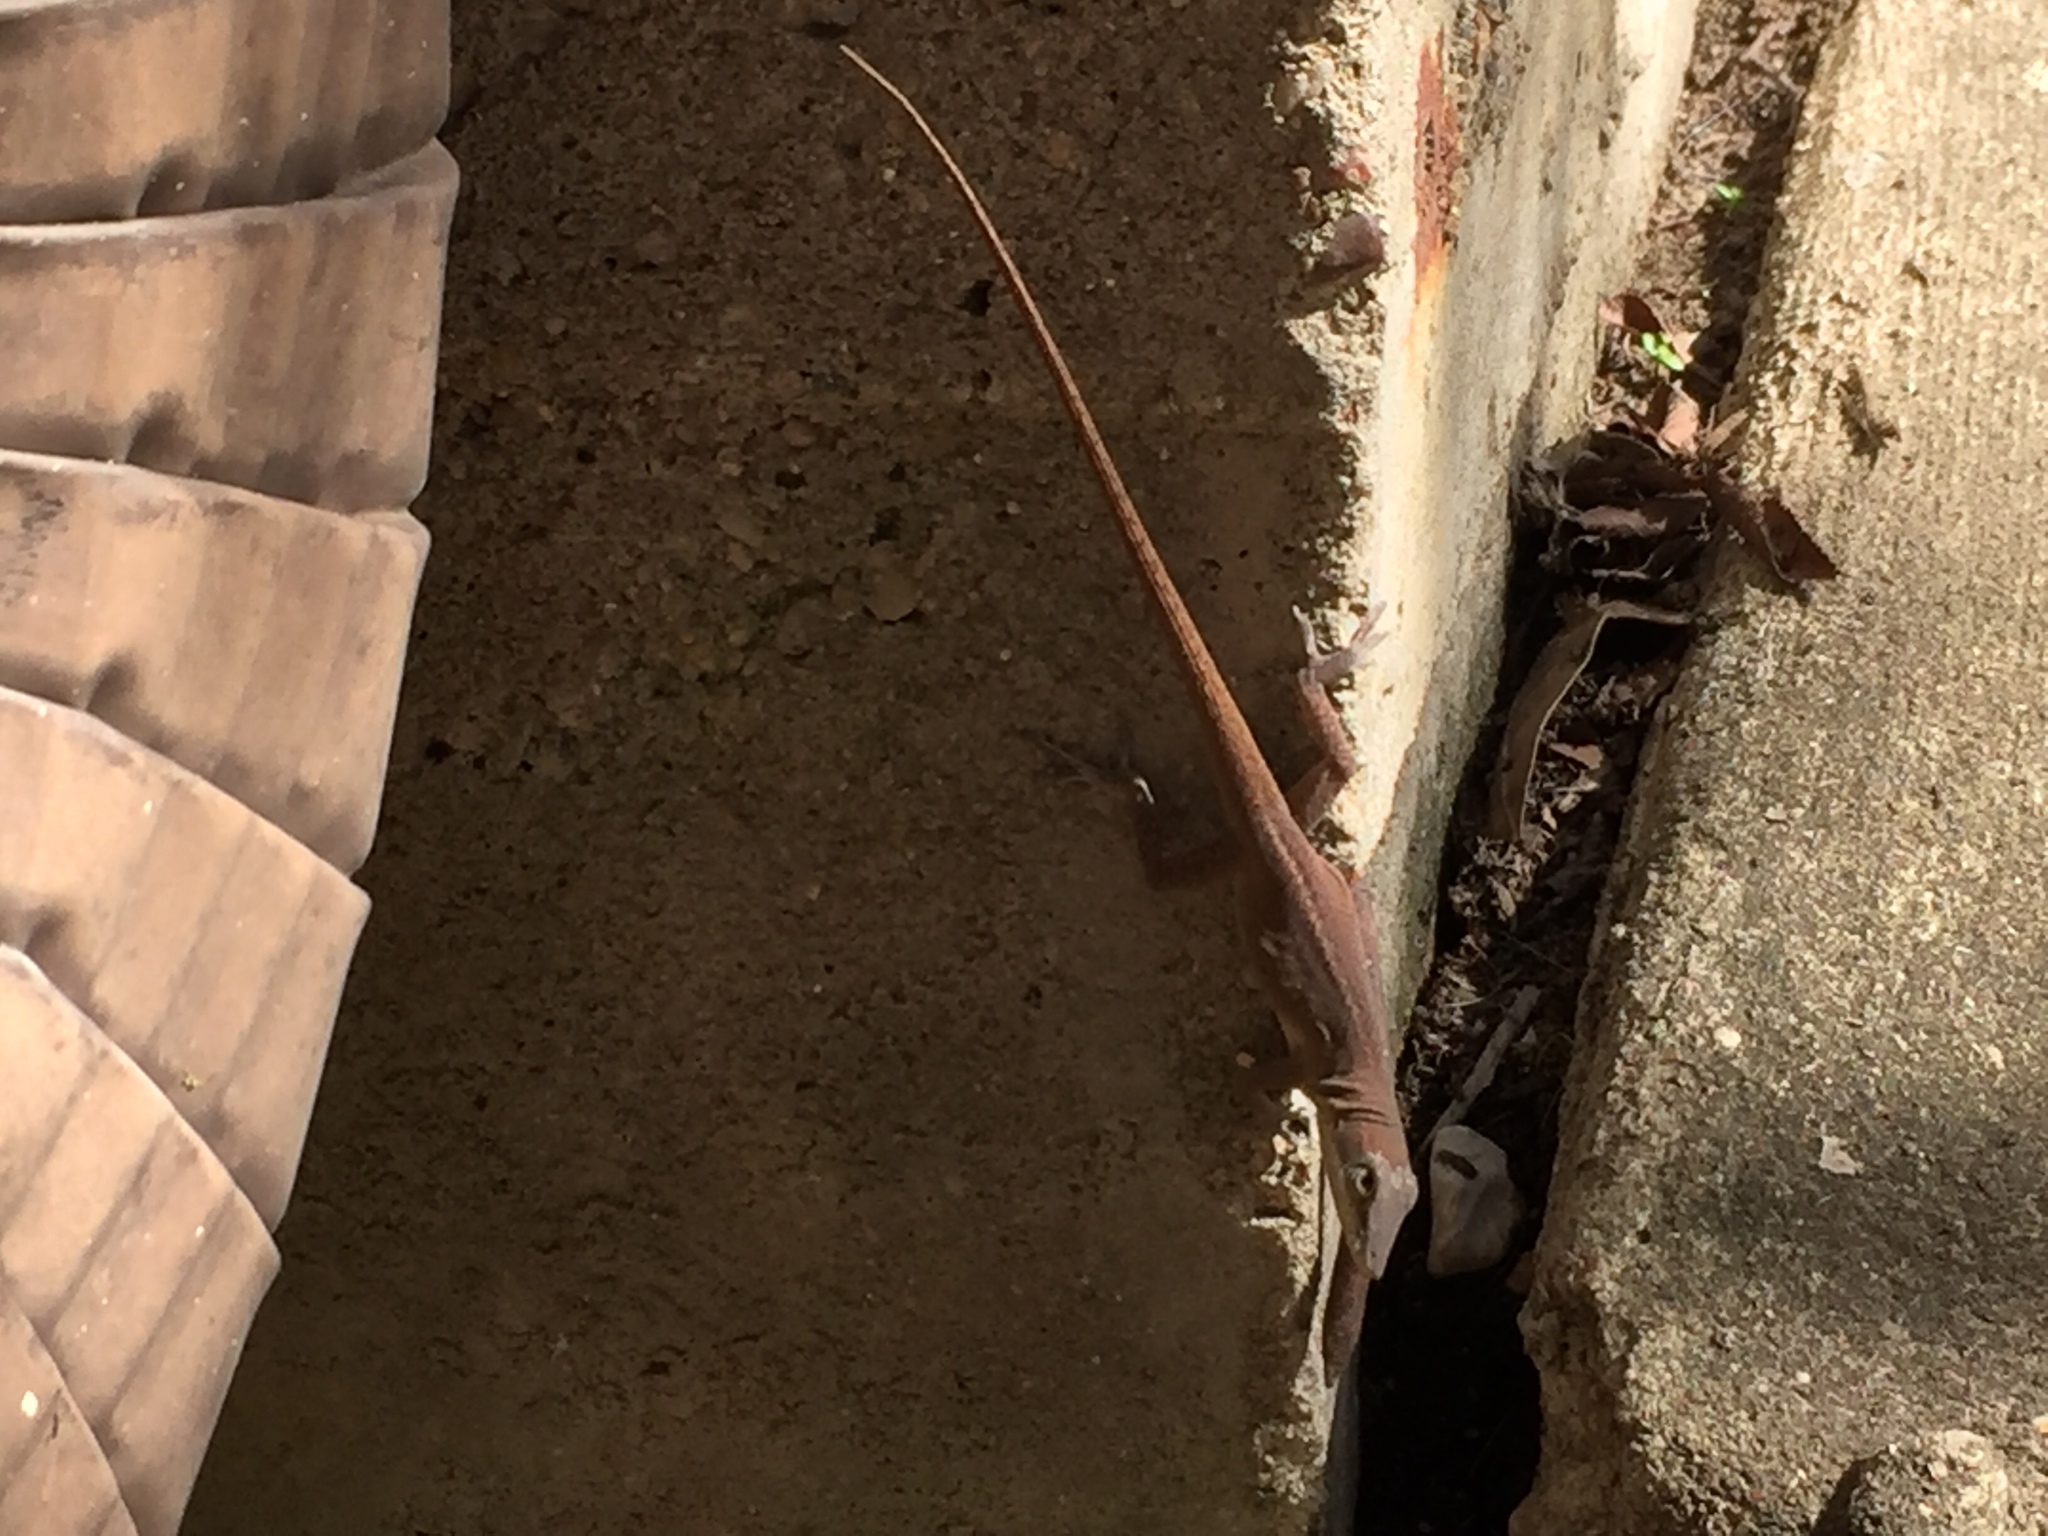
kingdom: Animalia
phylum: Chordata
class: Squamata
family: Dactyloidae
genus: Anolis
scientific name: Anolis carolinensis
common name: Green anole
